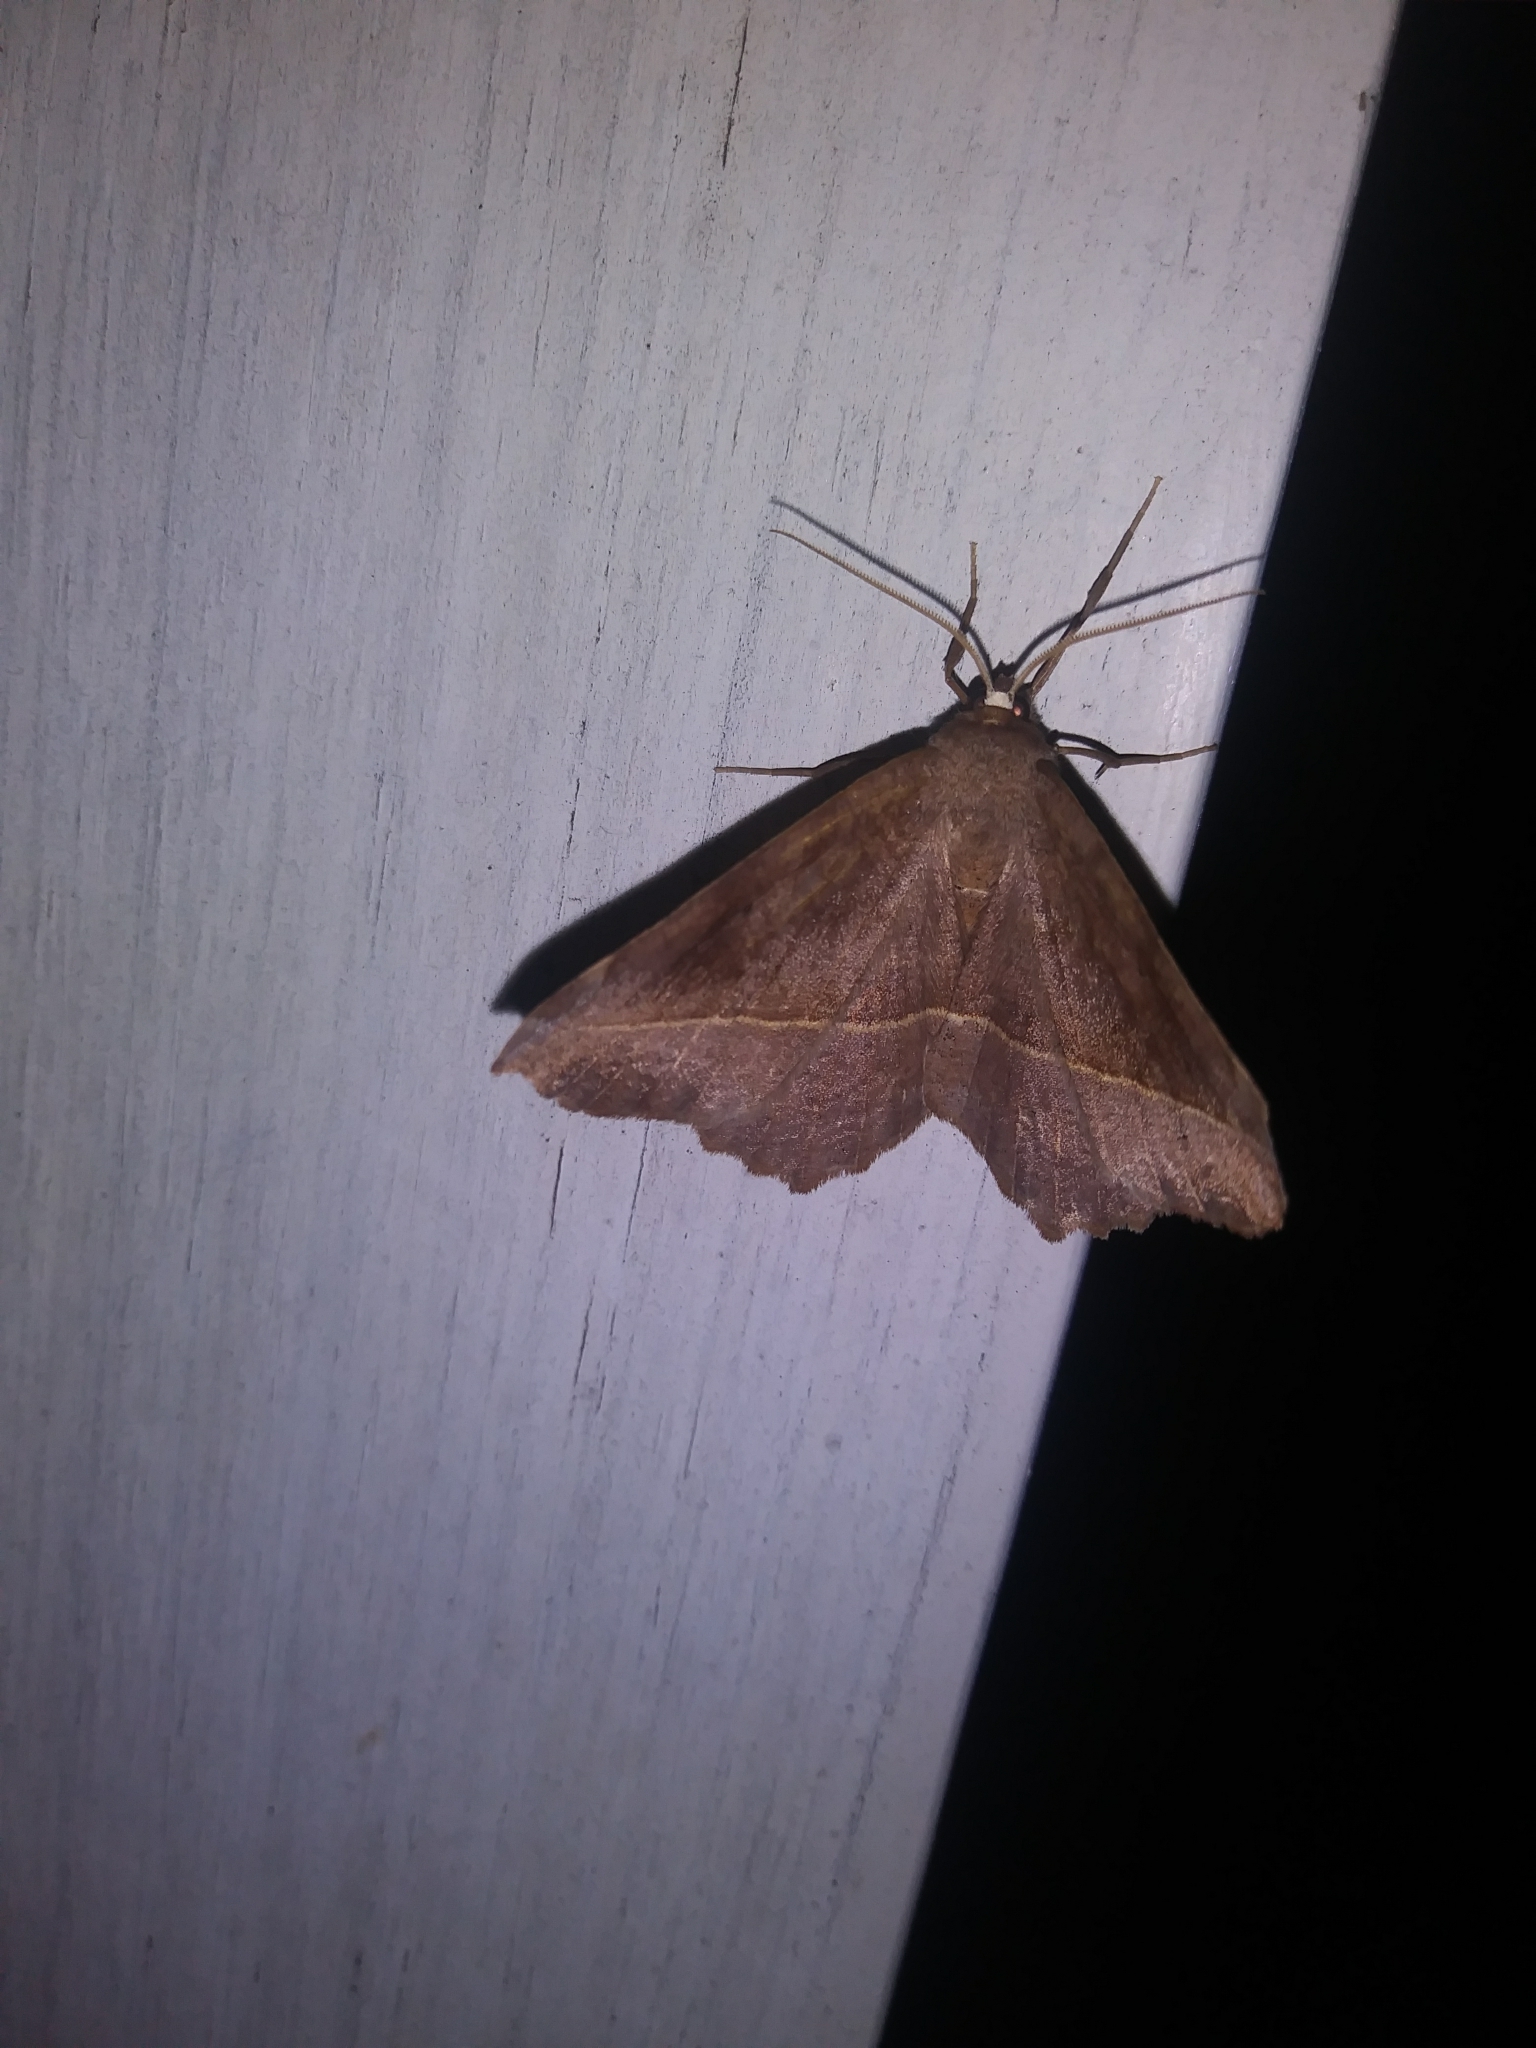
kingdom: Animalia
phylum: Arthropoda
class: Insecta
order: Lepidoptera
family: Geometridae
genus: Eutrapela
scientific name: Eutrapela clemataria
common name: Curved-toothed geometer
